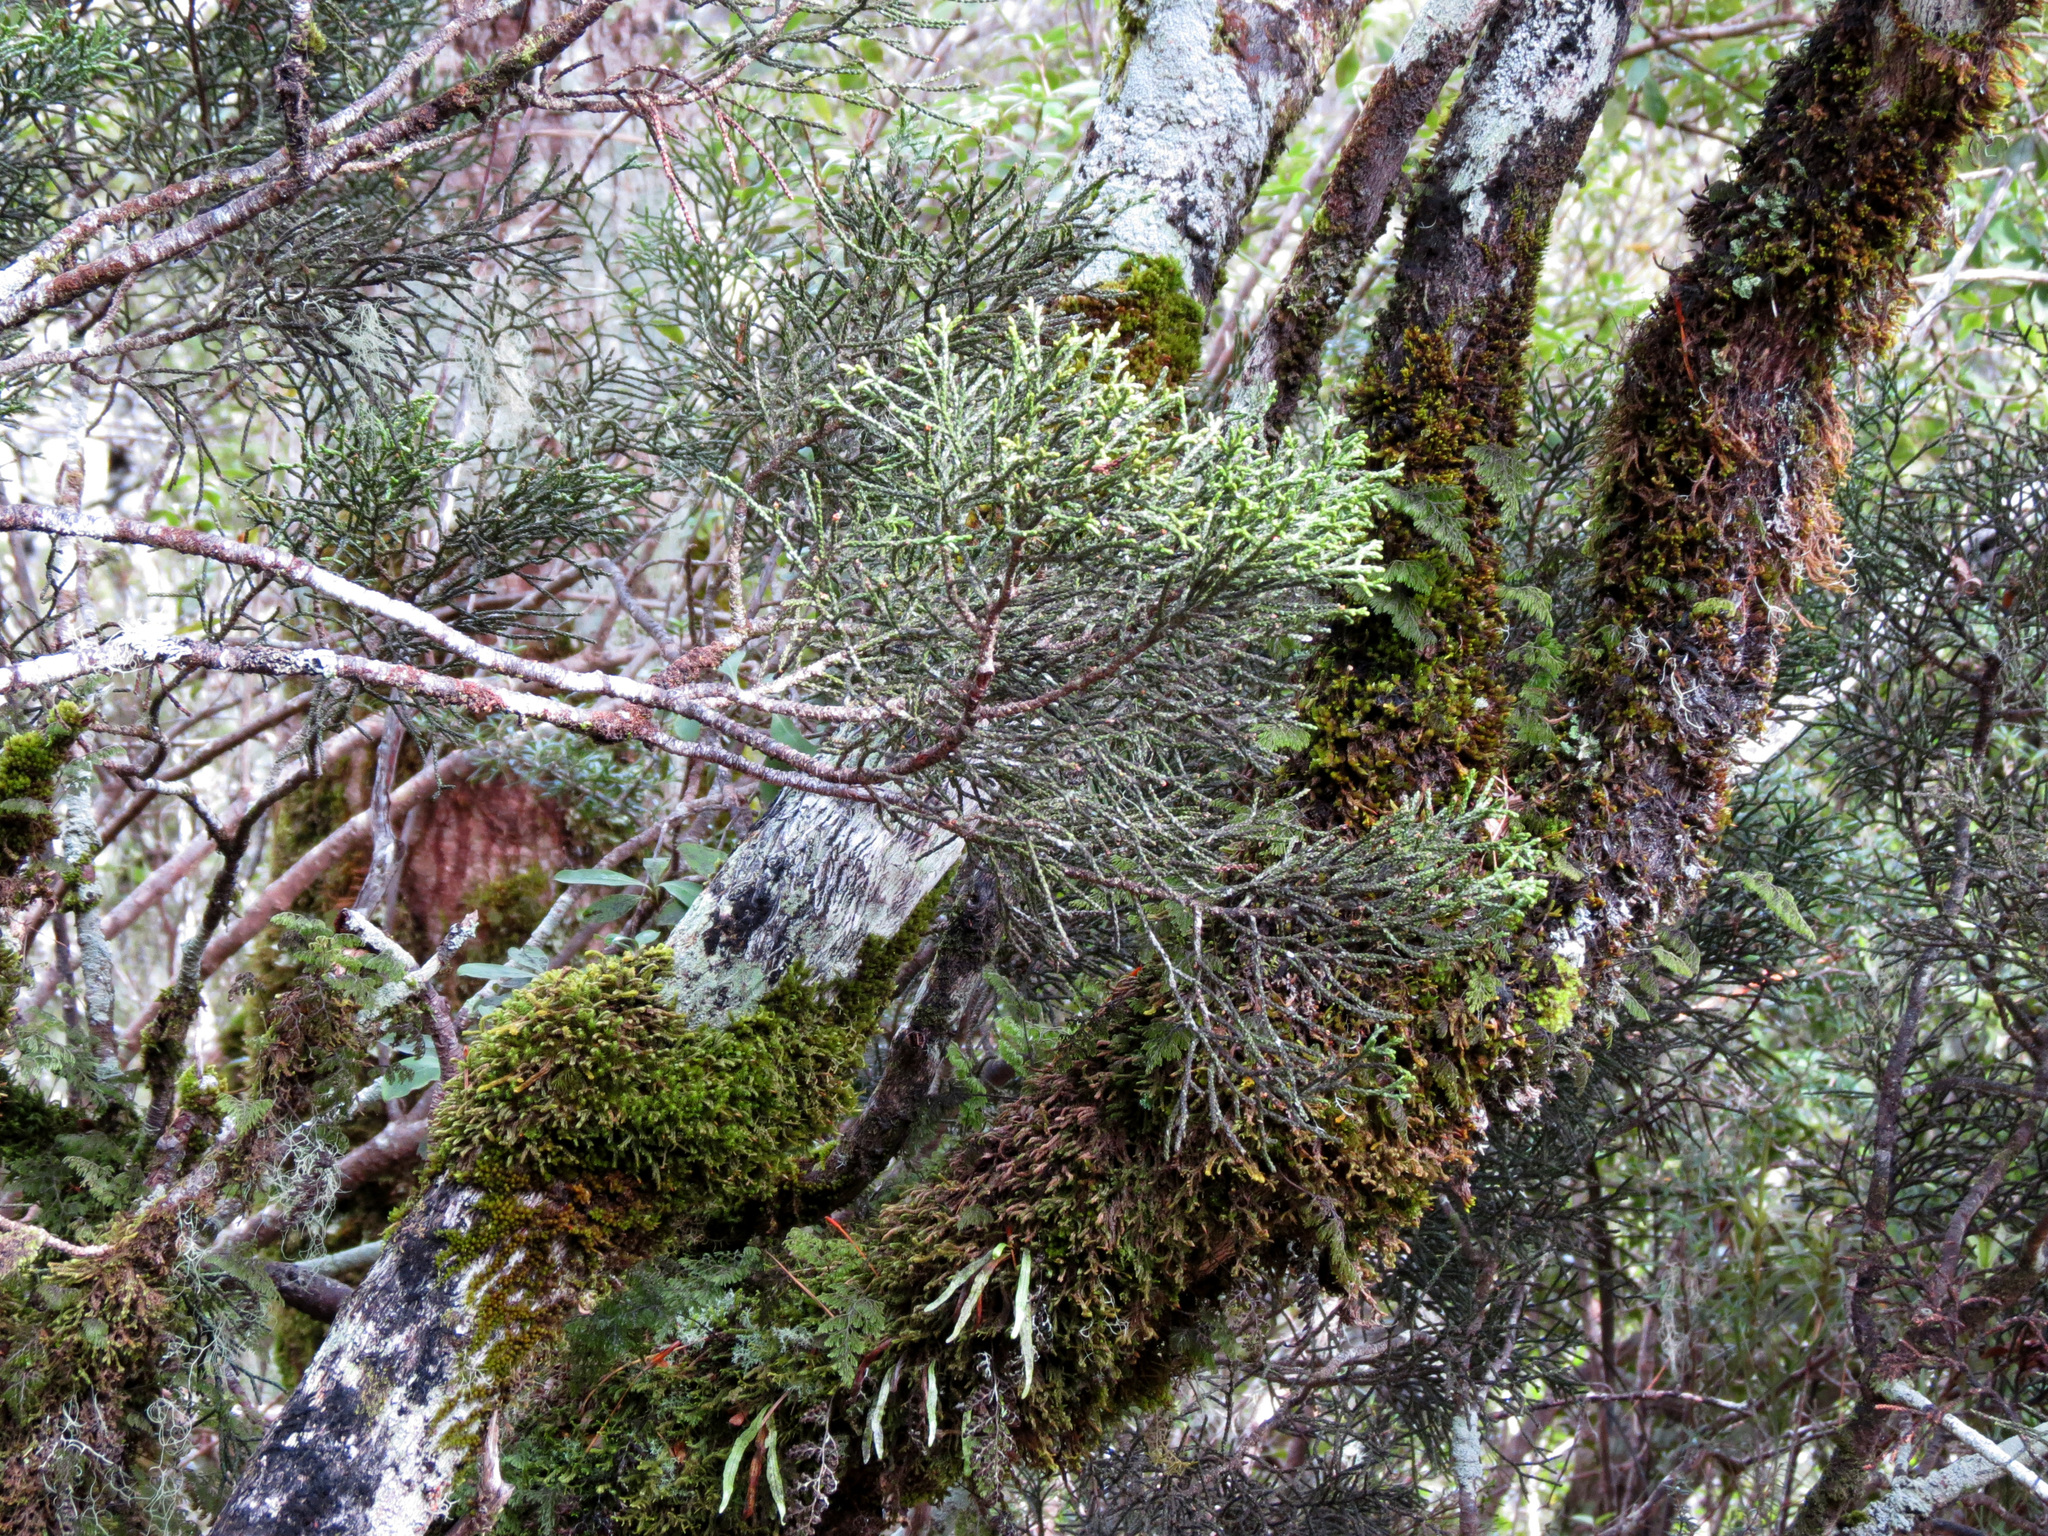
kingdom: Plantae
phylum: Tracheophyta
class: Pinopsida
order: Pinales
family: Podocarpaceae
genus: Halocarpus
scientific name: Halocarpus biformis
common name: Alpine tarwood
